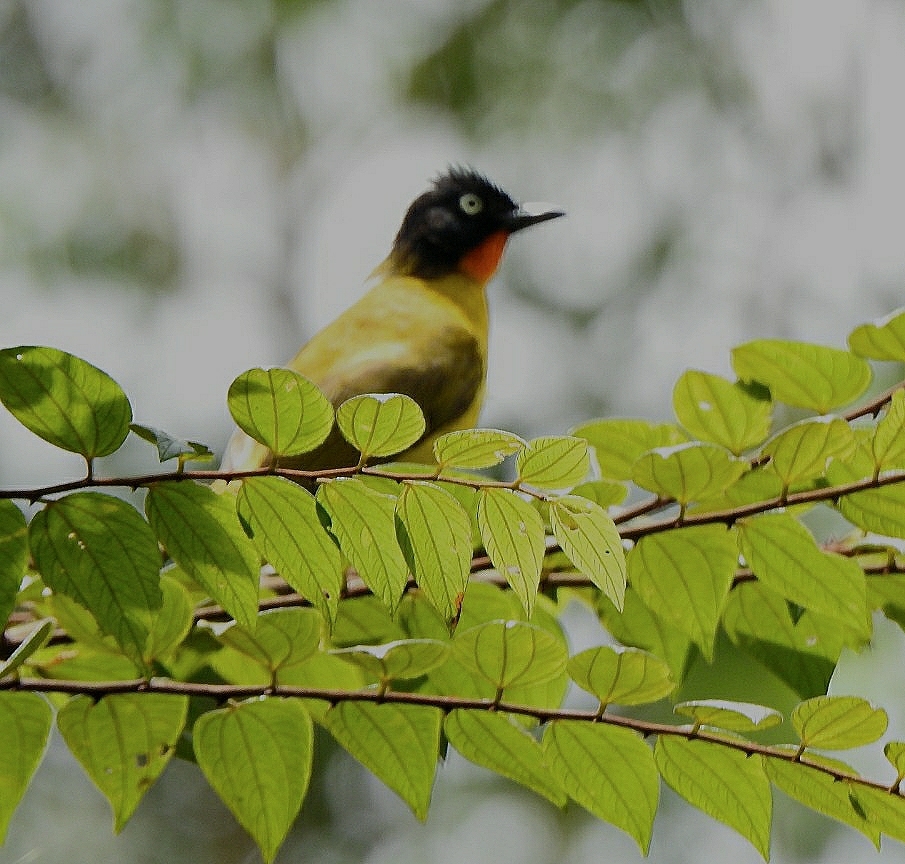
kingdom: Animalia
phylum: Chordata
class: Aves
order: Passeriformes
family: Pycnonotidae
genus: Pycnonotus
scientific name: Pycnonotus gularis
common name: Flame-throated bulbul
